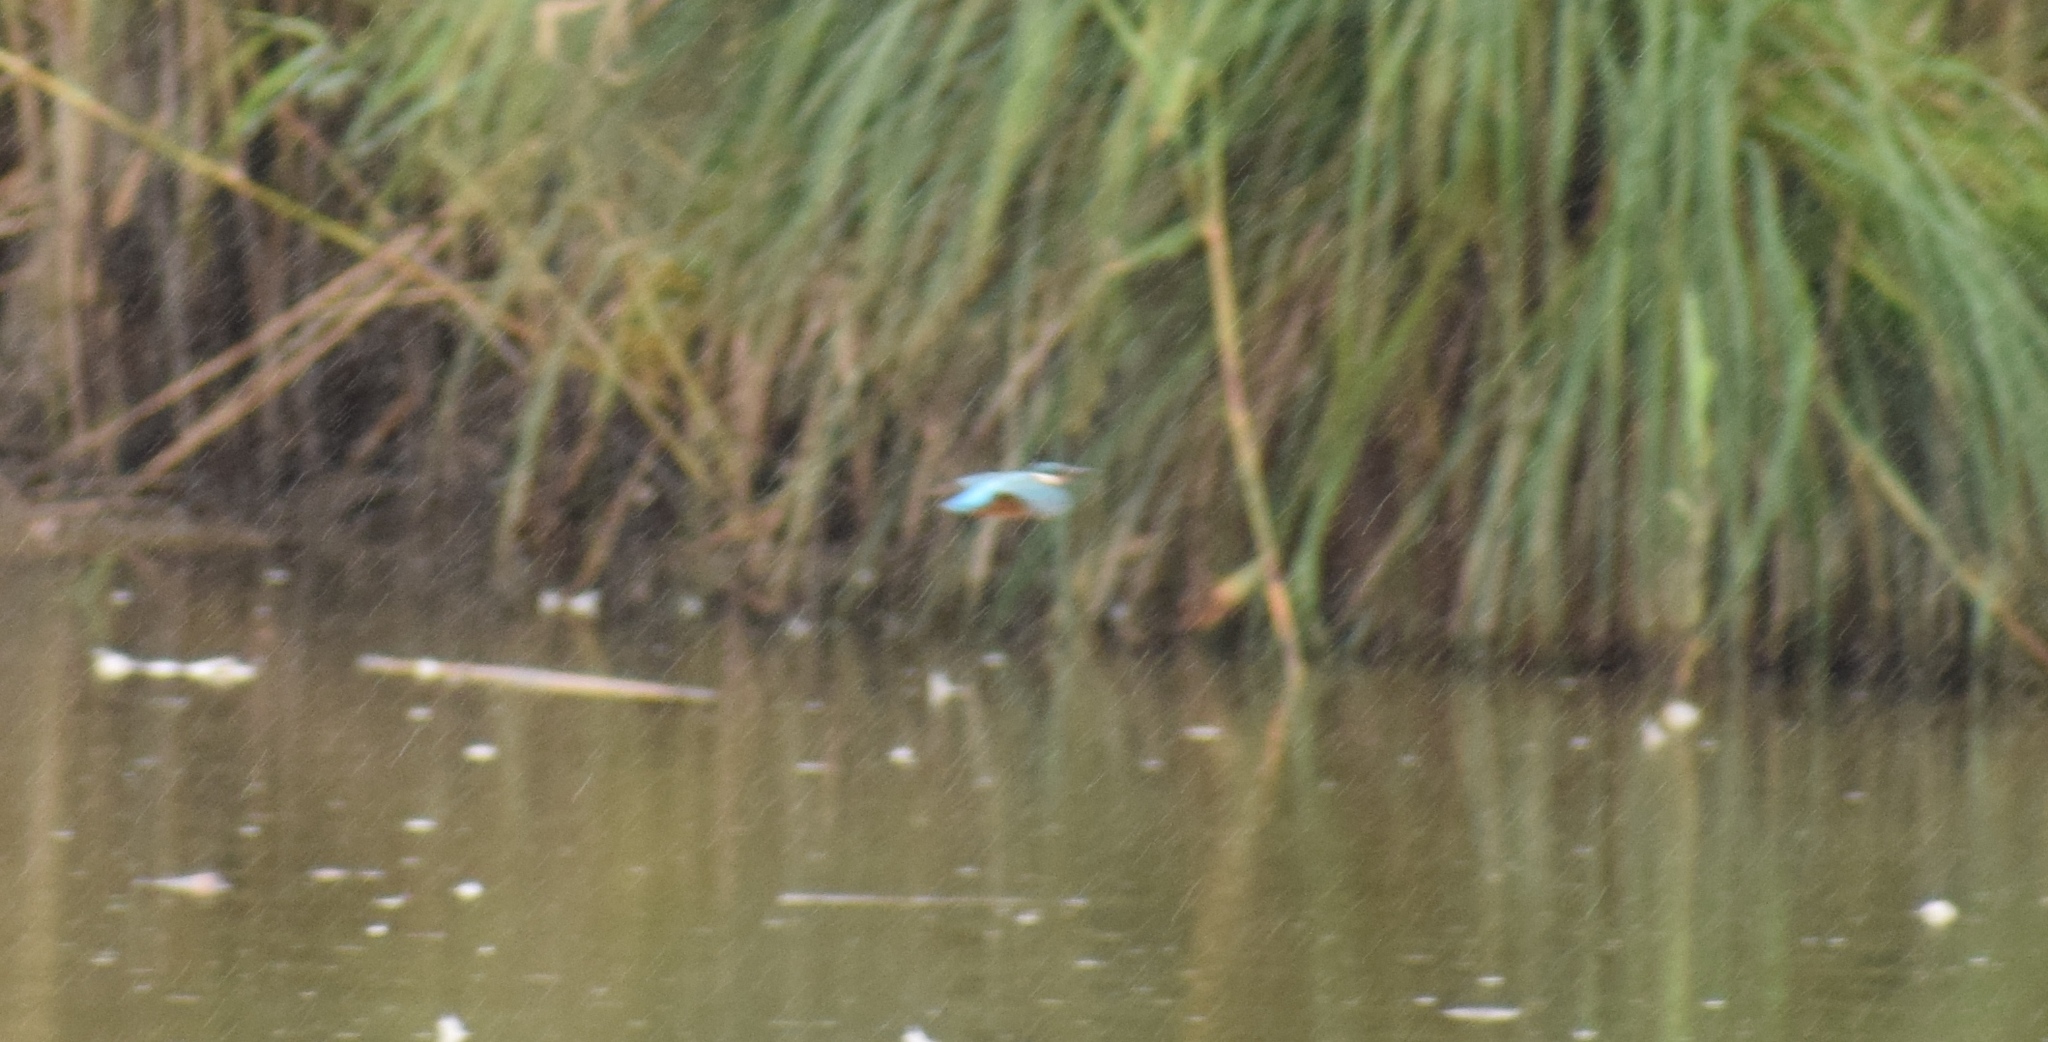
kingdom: Animalia
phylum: Chordata
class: Aves
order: Coraciiformes
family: Alcedinidae
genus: Alcedo
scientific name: Alcedo atthis
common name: Common kingfisher
